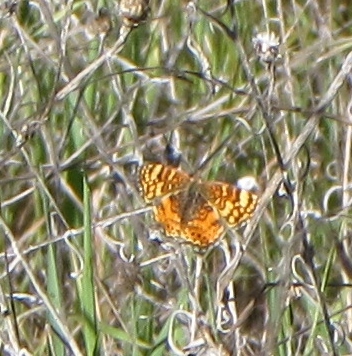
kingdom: Animalia
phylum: Arthropoda
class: Insecta
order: Lepidoptera
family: Nymphalidae
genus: Eresia
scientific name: Eresia aveyrona
